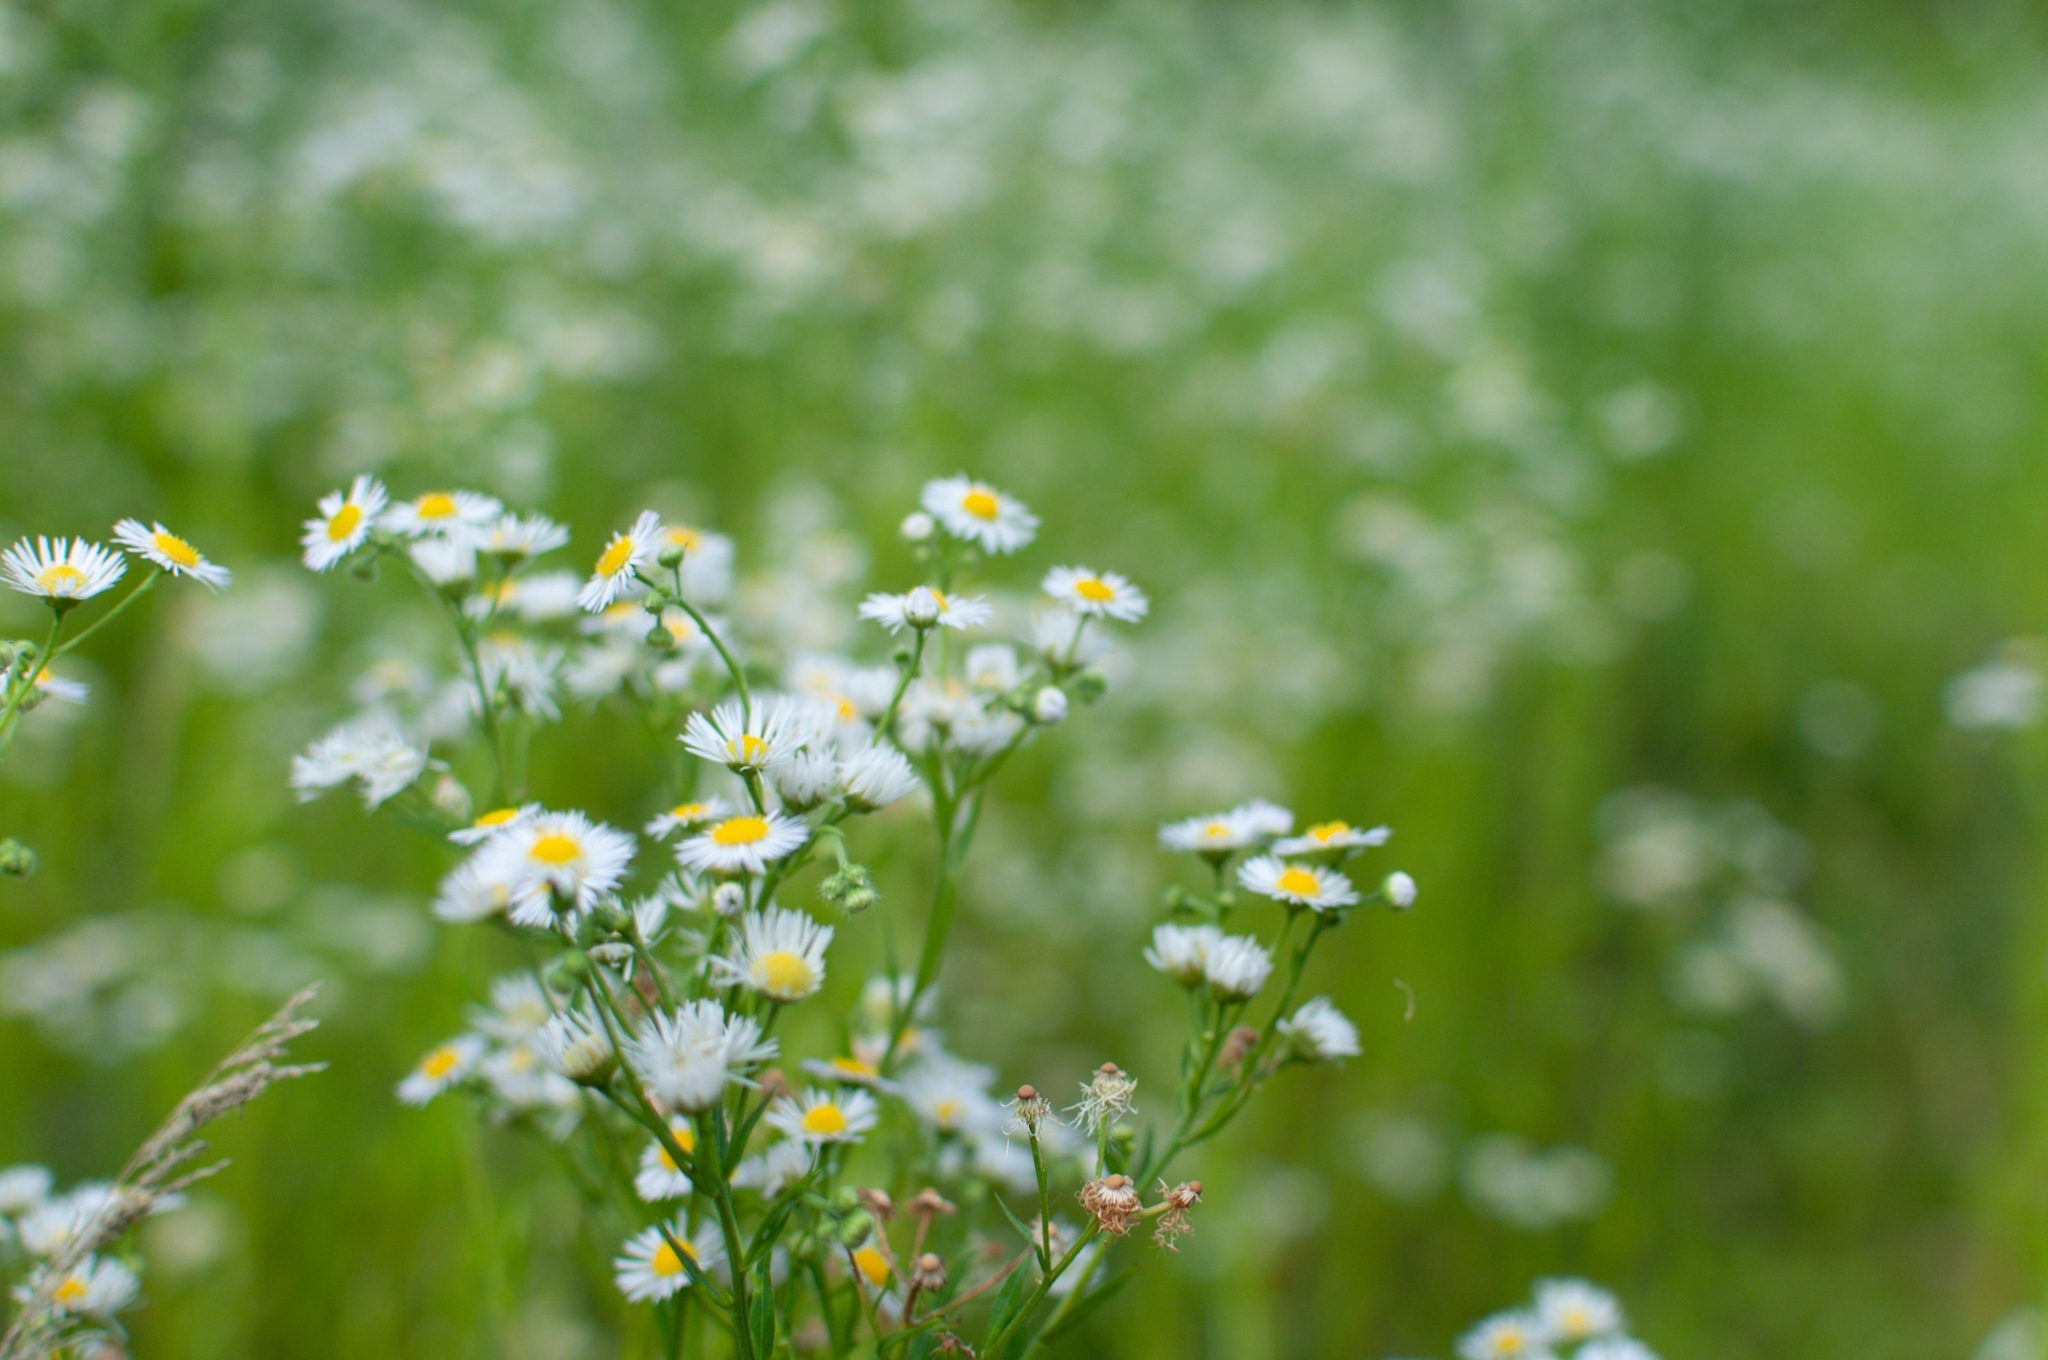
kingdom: Plantae
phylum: Tracheophyta
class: Magnoliopsida
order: Asterales
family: Asteraceae
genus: Erigeron
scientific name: Erigeron annuus
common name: Tall fleabane
